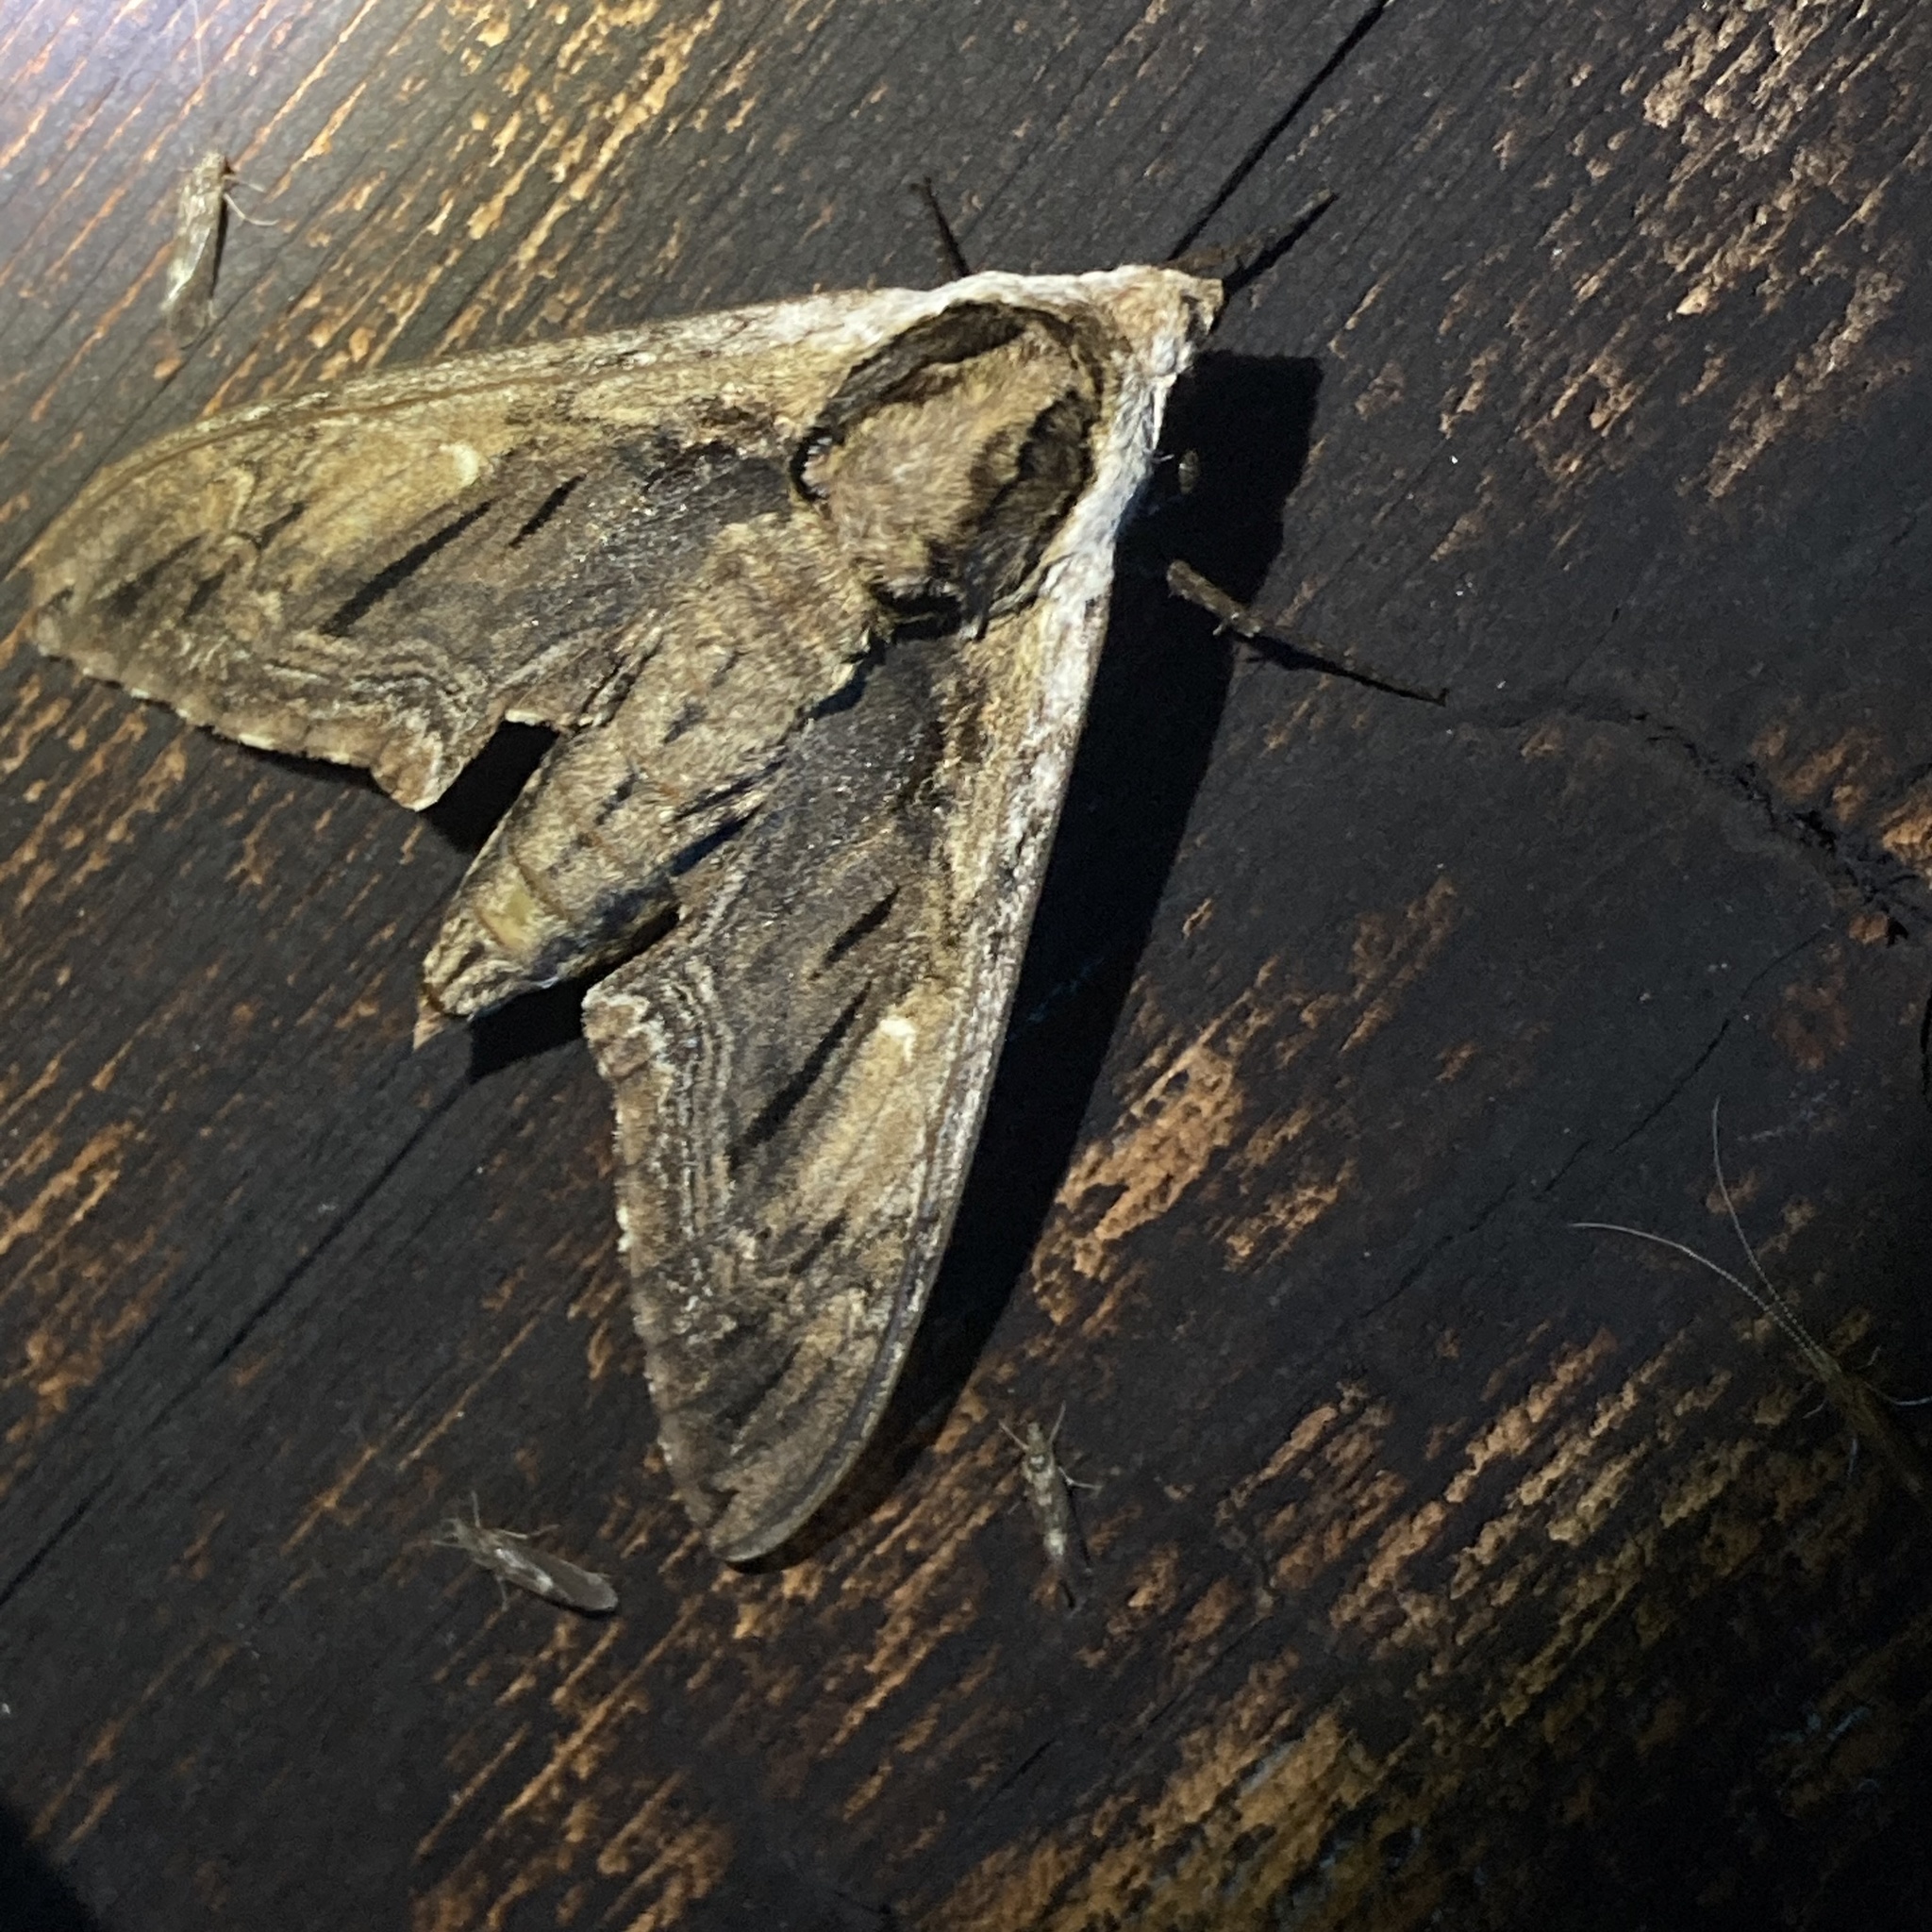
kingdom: Animalia
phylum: Arthropoda
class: Insecta
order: Lepidoptera
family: Sphingidae
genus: Ceratomia
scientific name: Ceratomia amyntor
